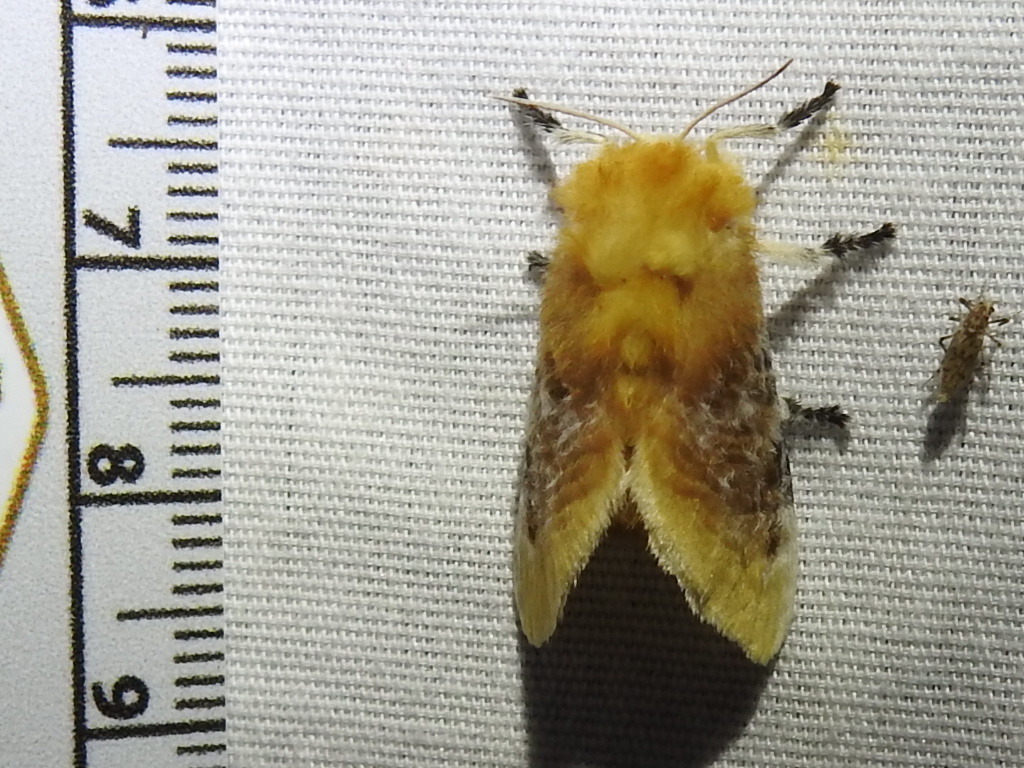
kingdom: Animalia
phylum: Arthropoda
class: Insecta
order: Lepidoptera
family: Megalopygidae
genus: Megalopyge
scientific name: Megalopyge opercularis
